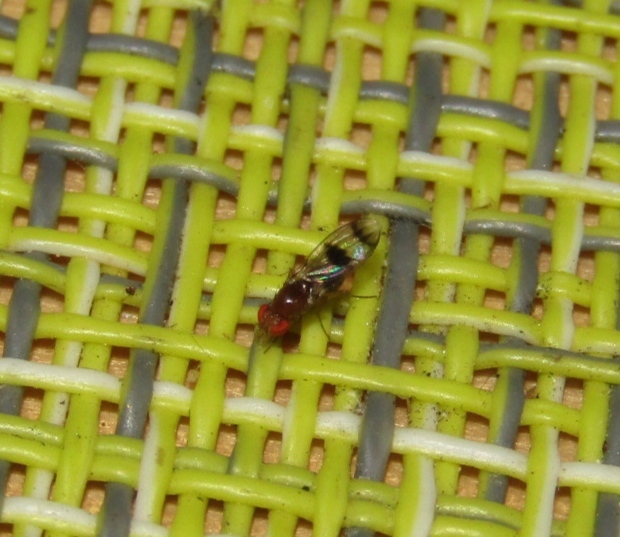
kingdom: Animalia
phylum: Arthropoda
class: Insecta
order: Diptera
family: Drosophilidae
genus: Chymomyza
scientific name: Chymomyza amoena
